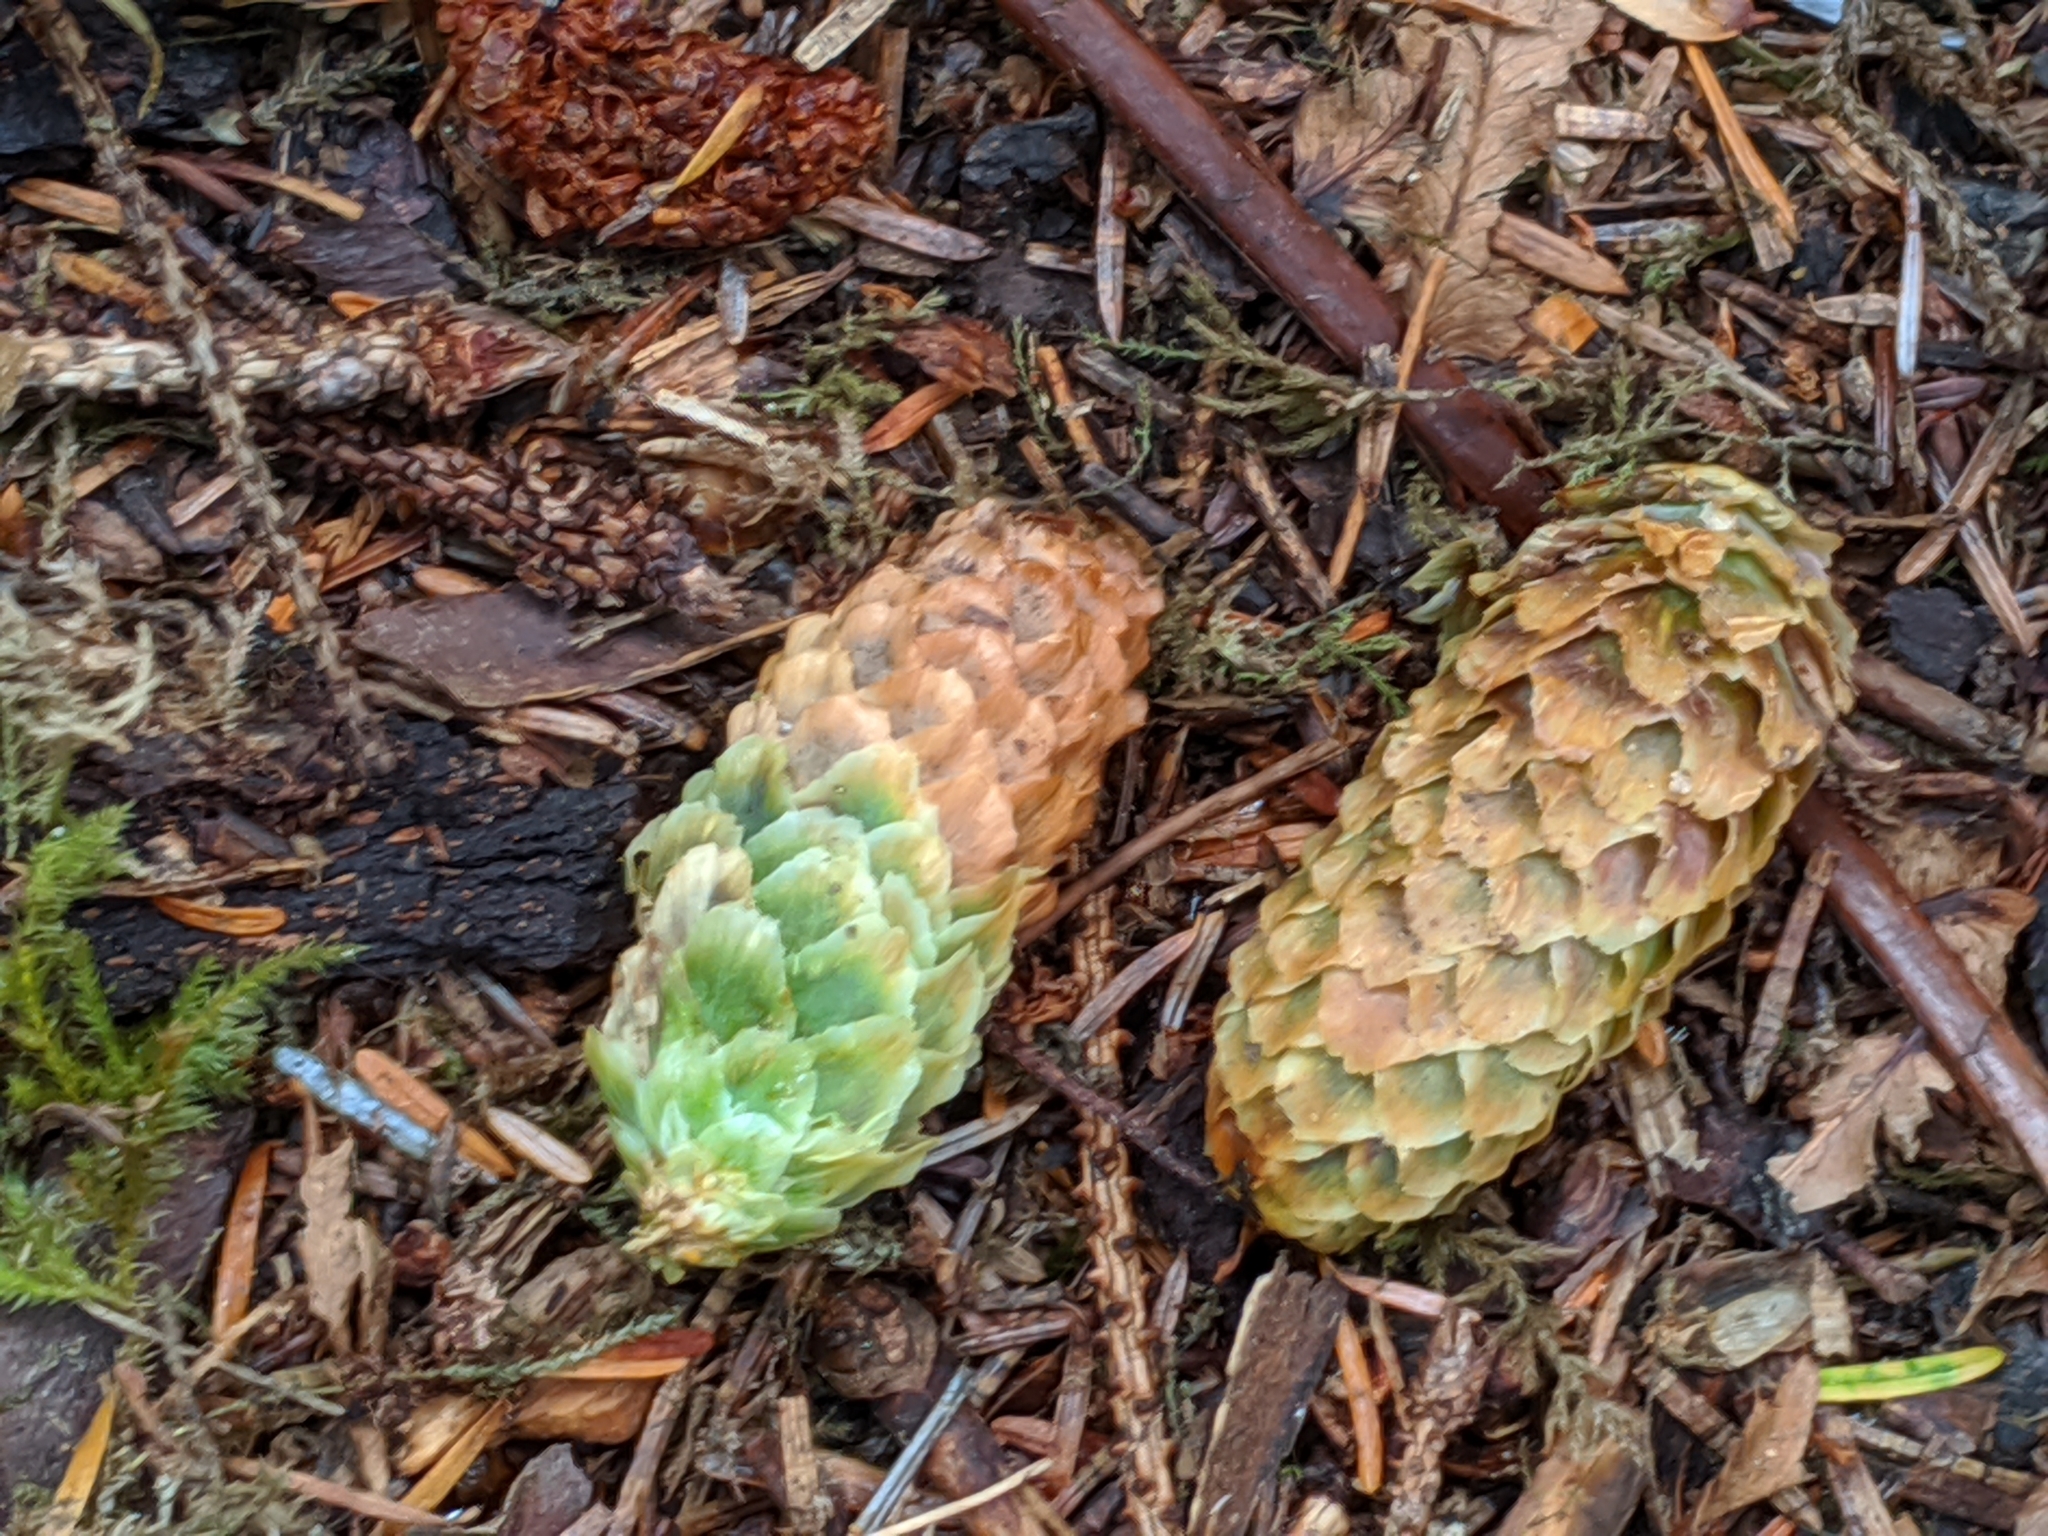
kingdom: Plantae
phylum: Tracheophyta
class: Pinopsida
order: Pinales
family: Pinaceae
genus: Picea
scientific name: Picea sitchensis
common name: Sitka spruce
